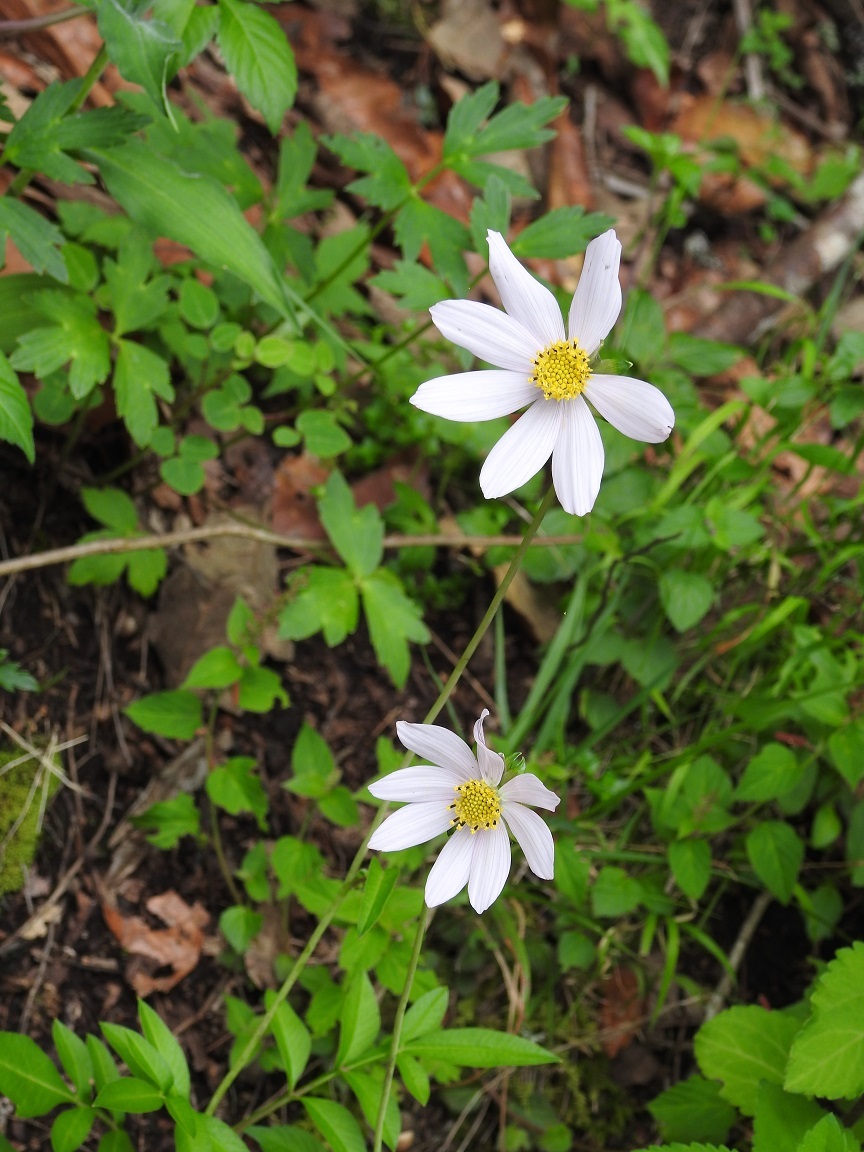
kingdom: Plantae
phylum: Tracheophyta
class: Magnoliopsida
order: Asterales
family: Asteraceae
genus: Cosmos
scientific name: Cosmos diversifolius
